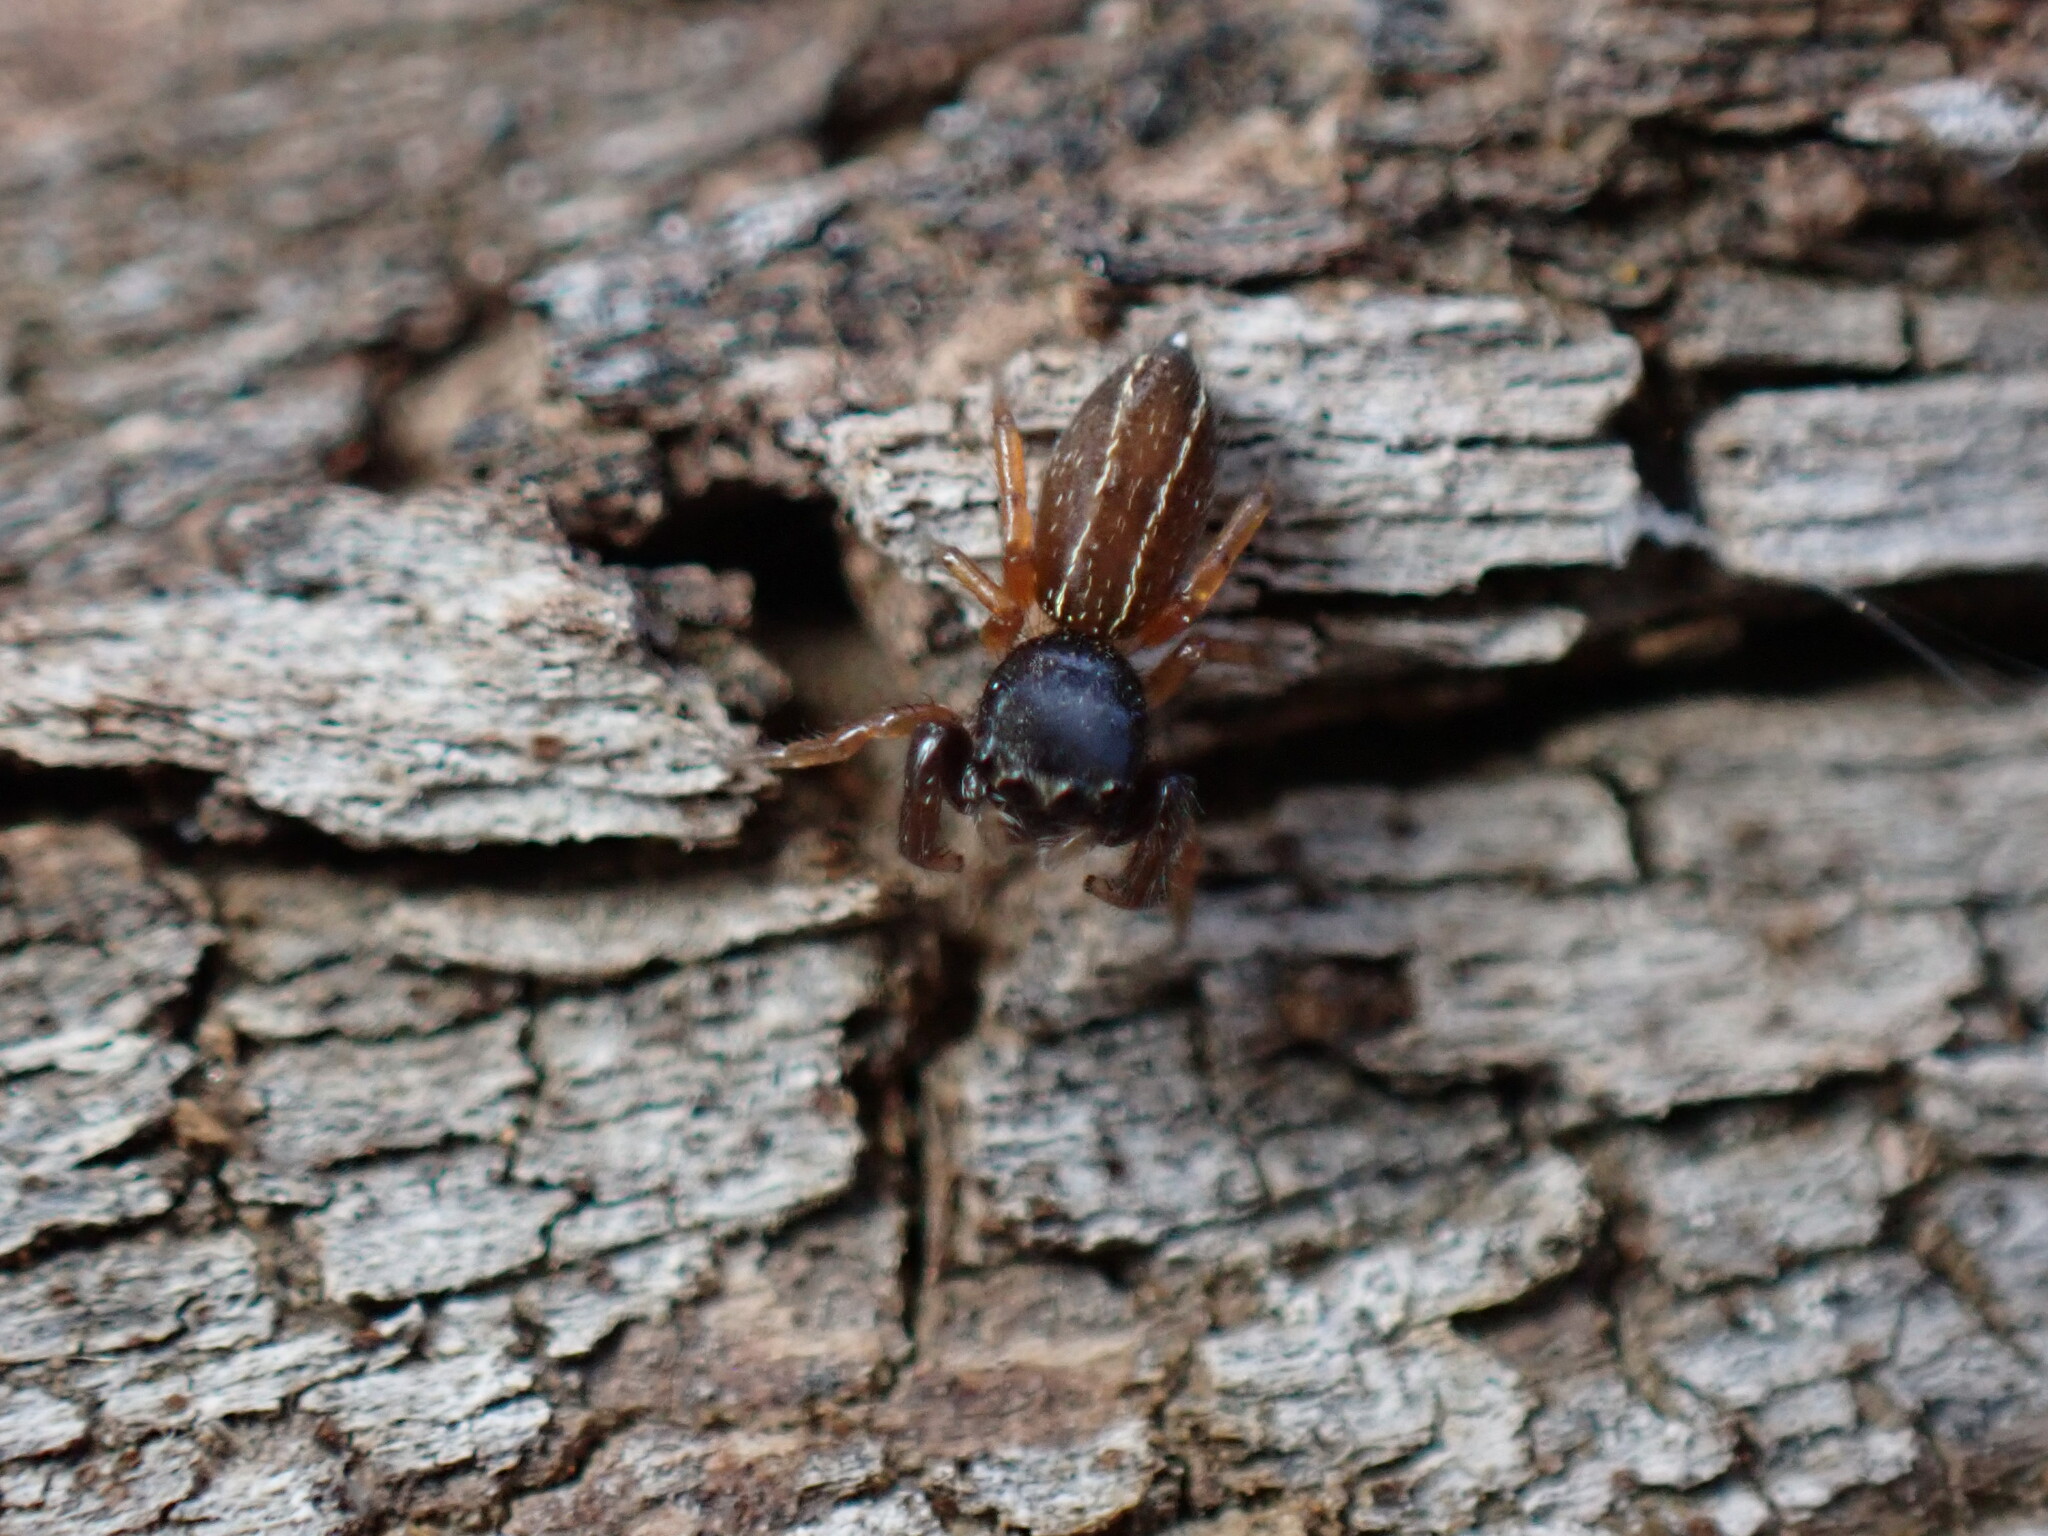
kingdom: Animalia
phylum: Arthropoda
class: Arachnida
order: Araneae
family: Salticidae
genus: Metacyrba
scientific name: Metacyrba taeniola
